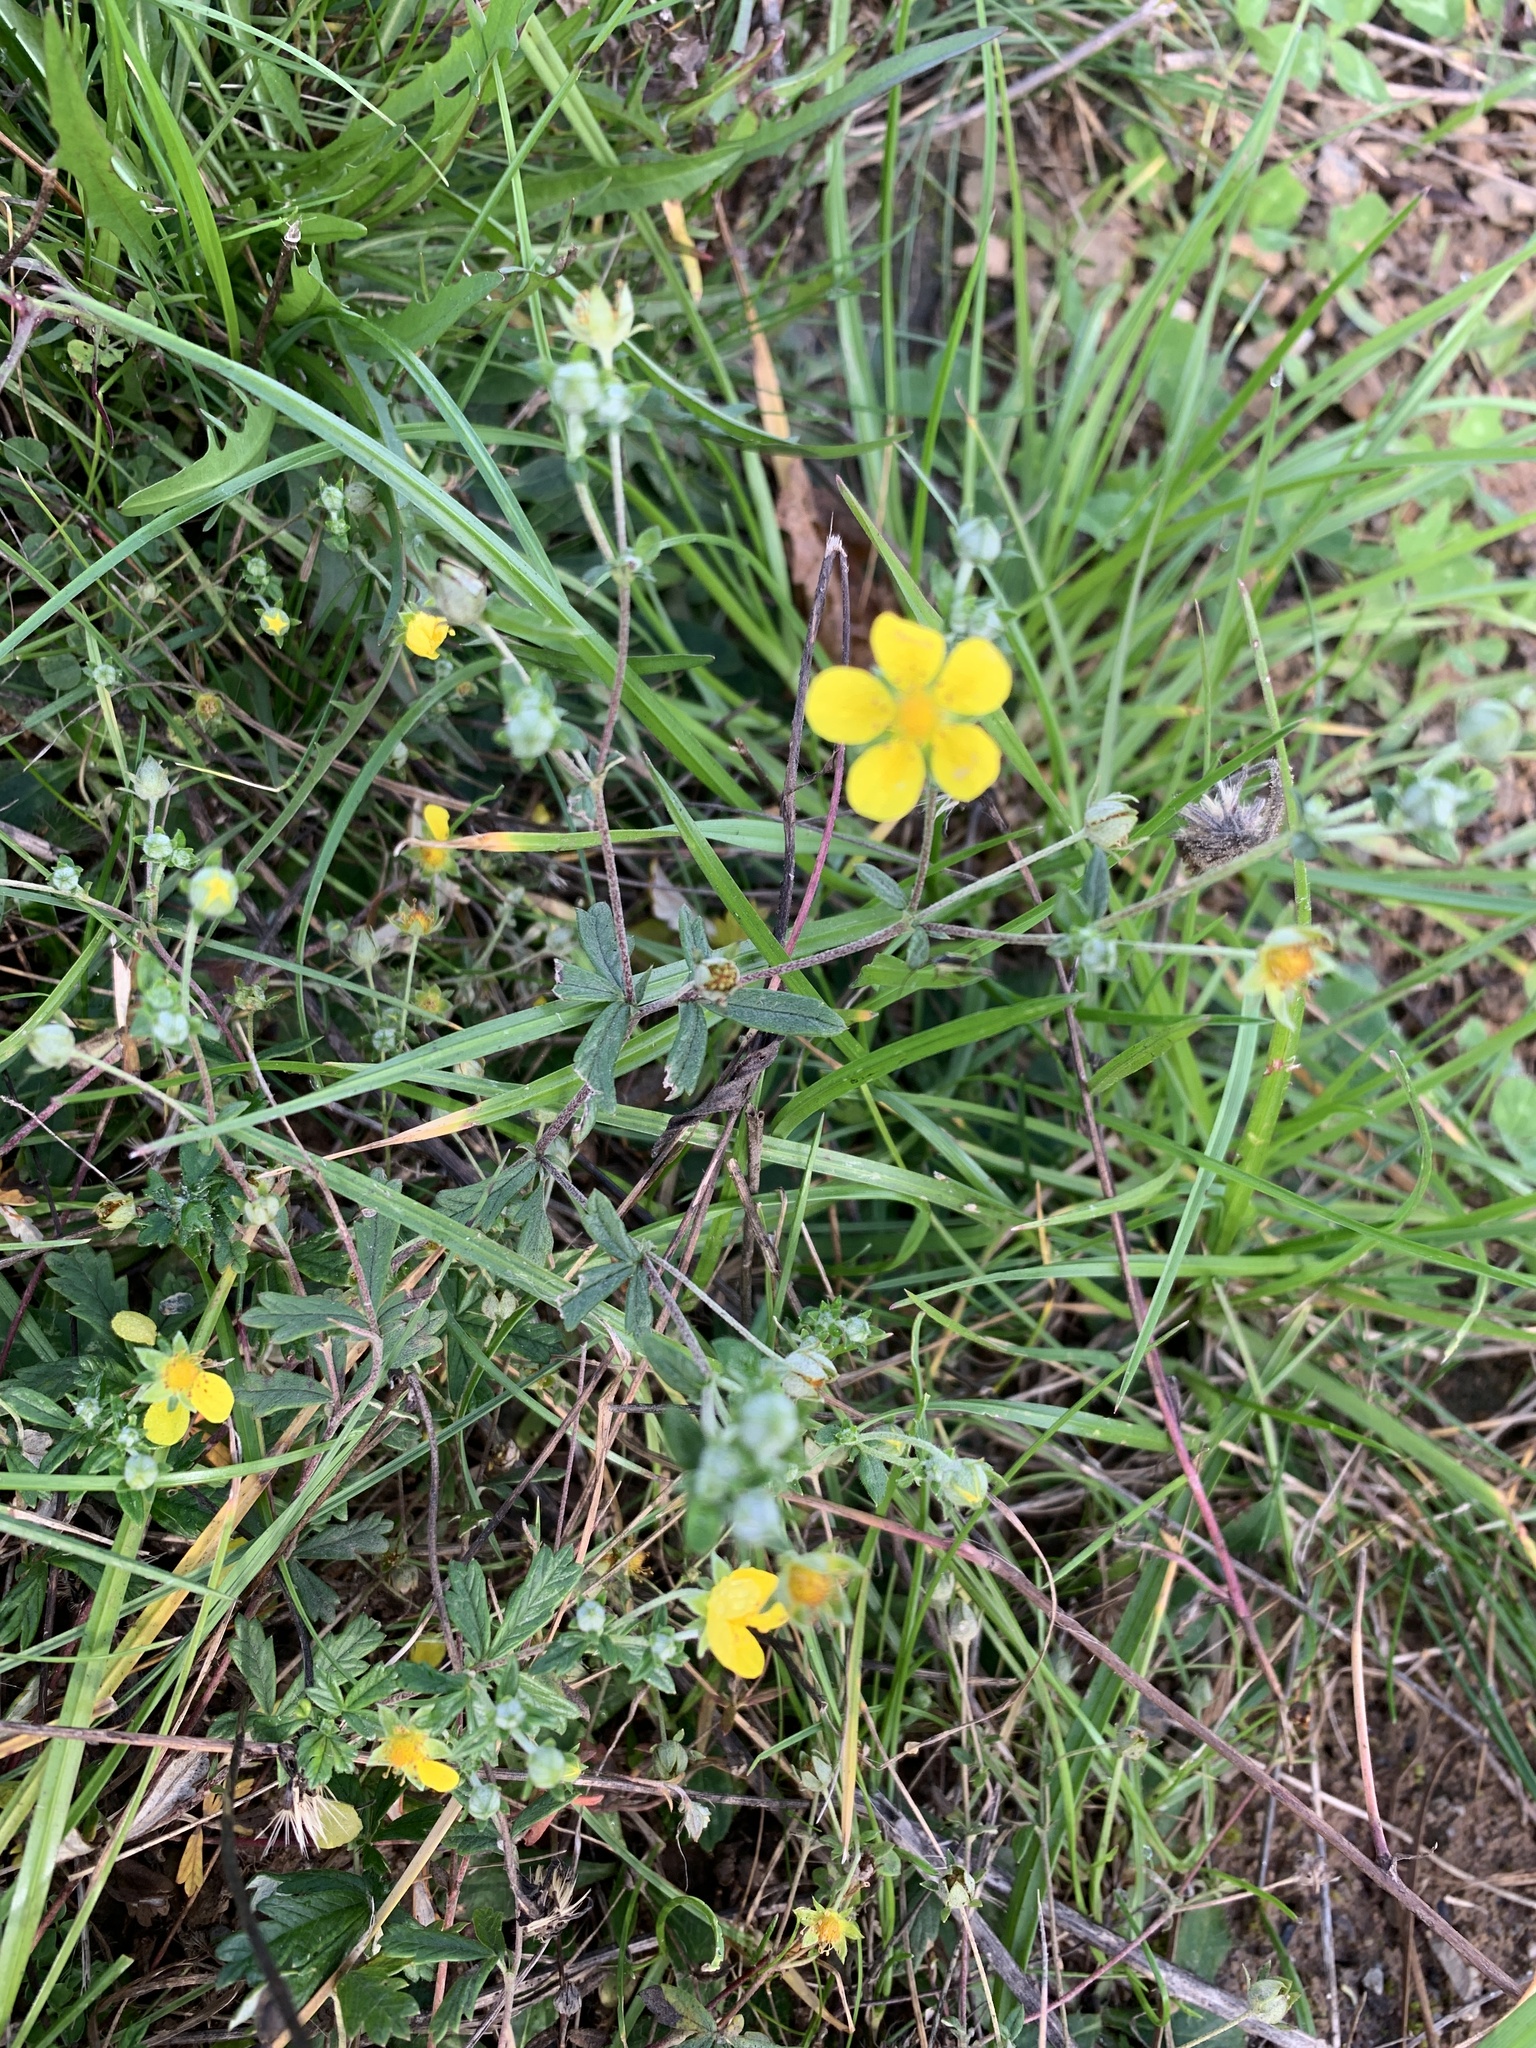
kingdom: Plantae
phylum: Tracheophyta
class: Magnoliopsida
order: Rosales
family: Rosaceae
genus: Potentilla
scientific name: Potentilla argentea
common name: Hoary cinquefoil
